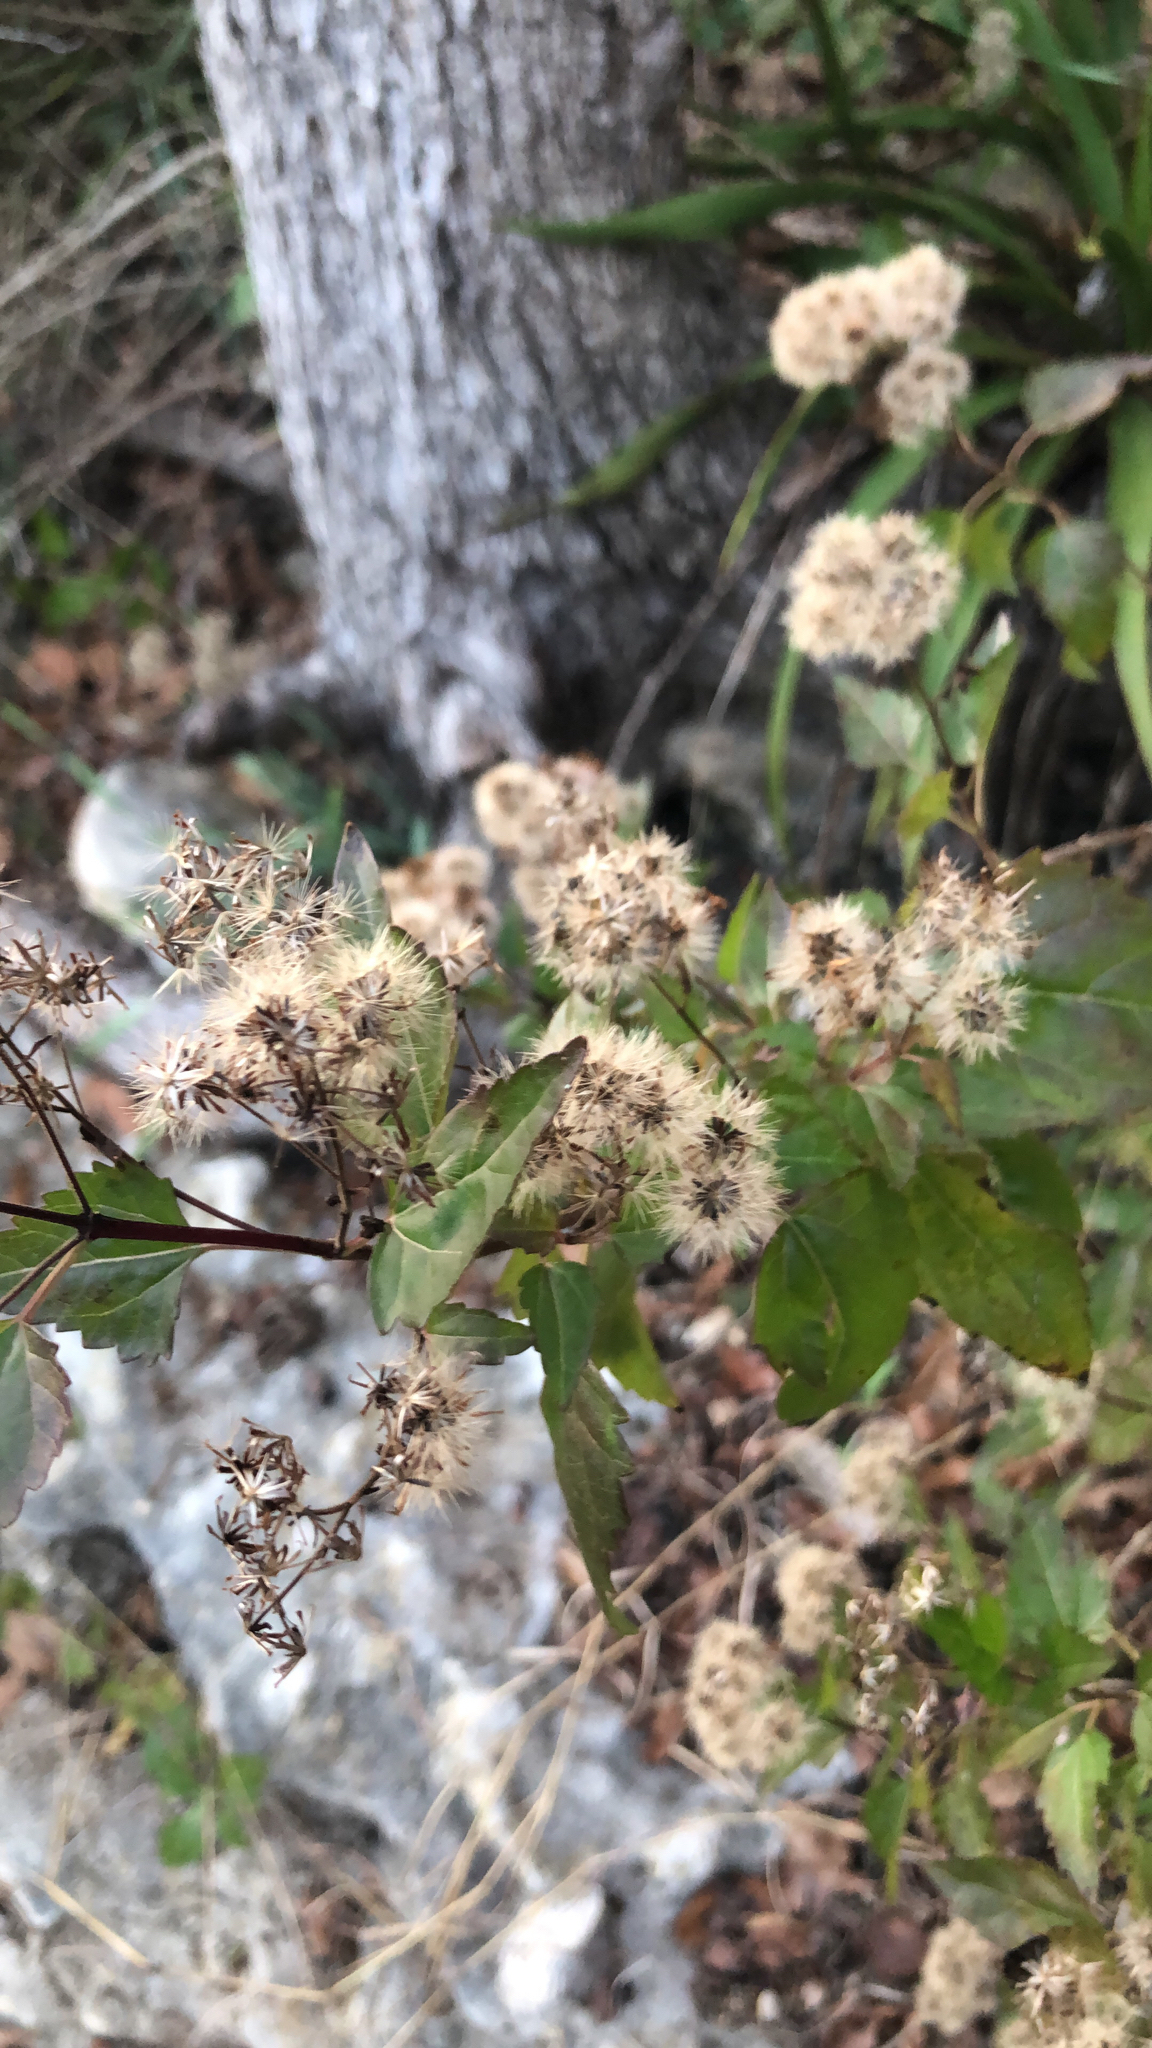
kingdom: Plantae
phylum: Tracheophyta
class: Magnoliopsida
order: Asterales
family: Asteraceae
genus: Ageratina
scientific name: Ageratina havanensis
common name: Havana snakeroot
